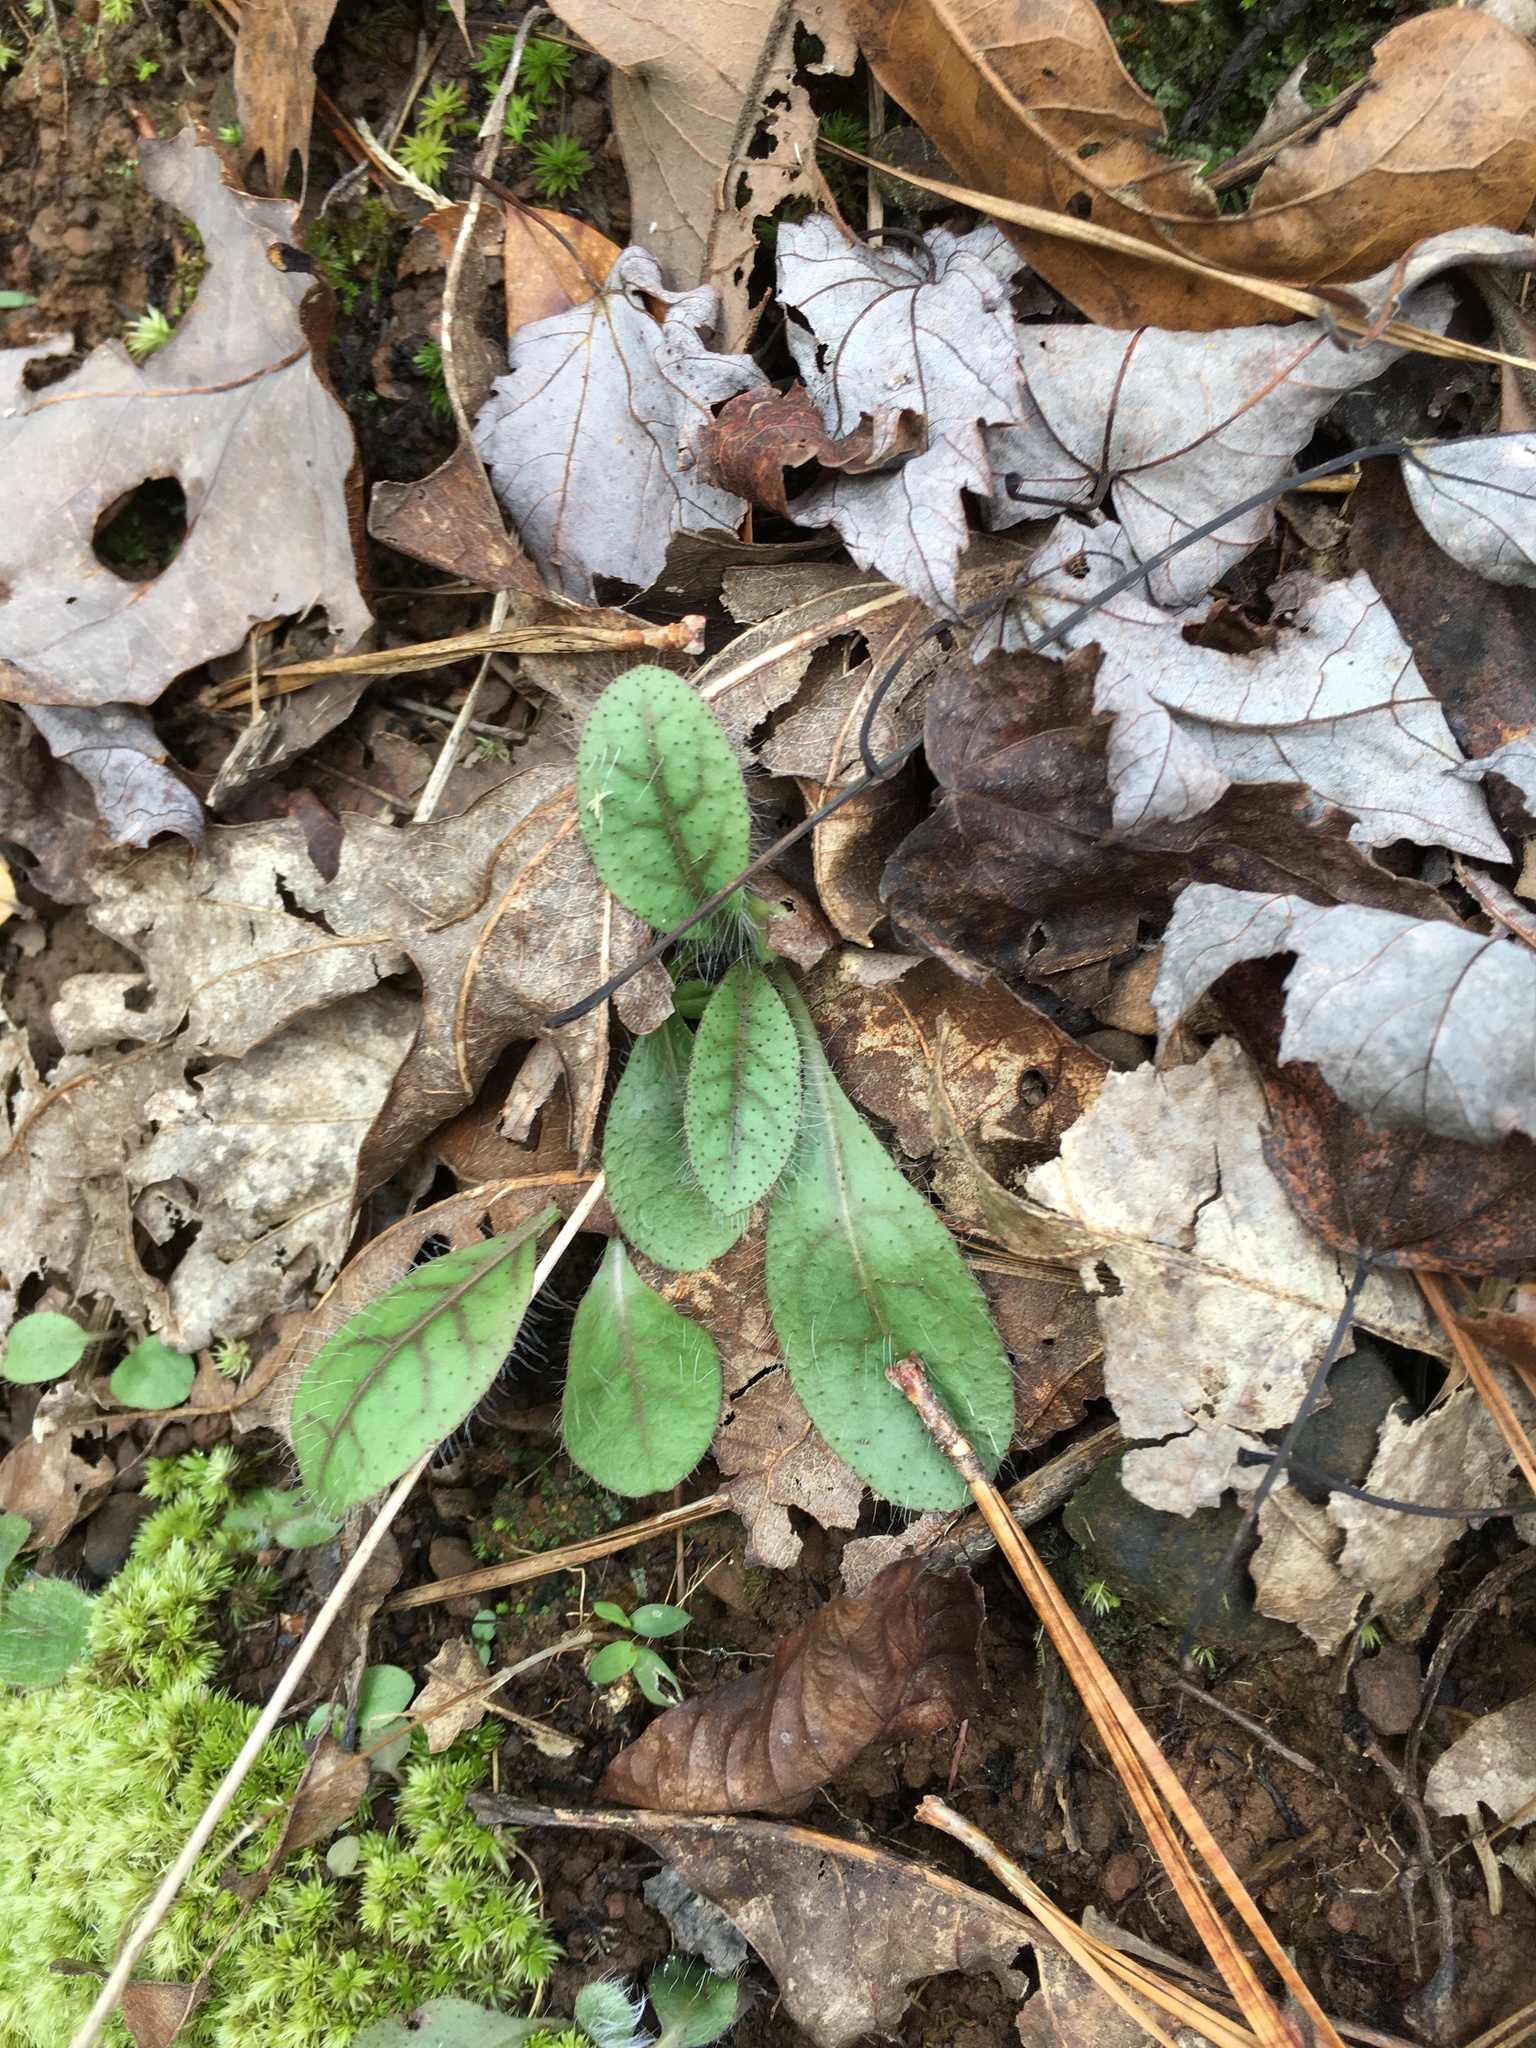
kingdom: Plantae
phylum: Tracheophyta
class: Magnoliopsida
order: Asterales
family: Asteraceae
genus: Hieracium
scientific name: Hieracium venosum
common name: Rattlesnake hawkweed
